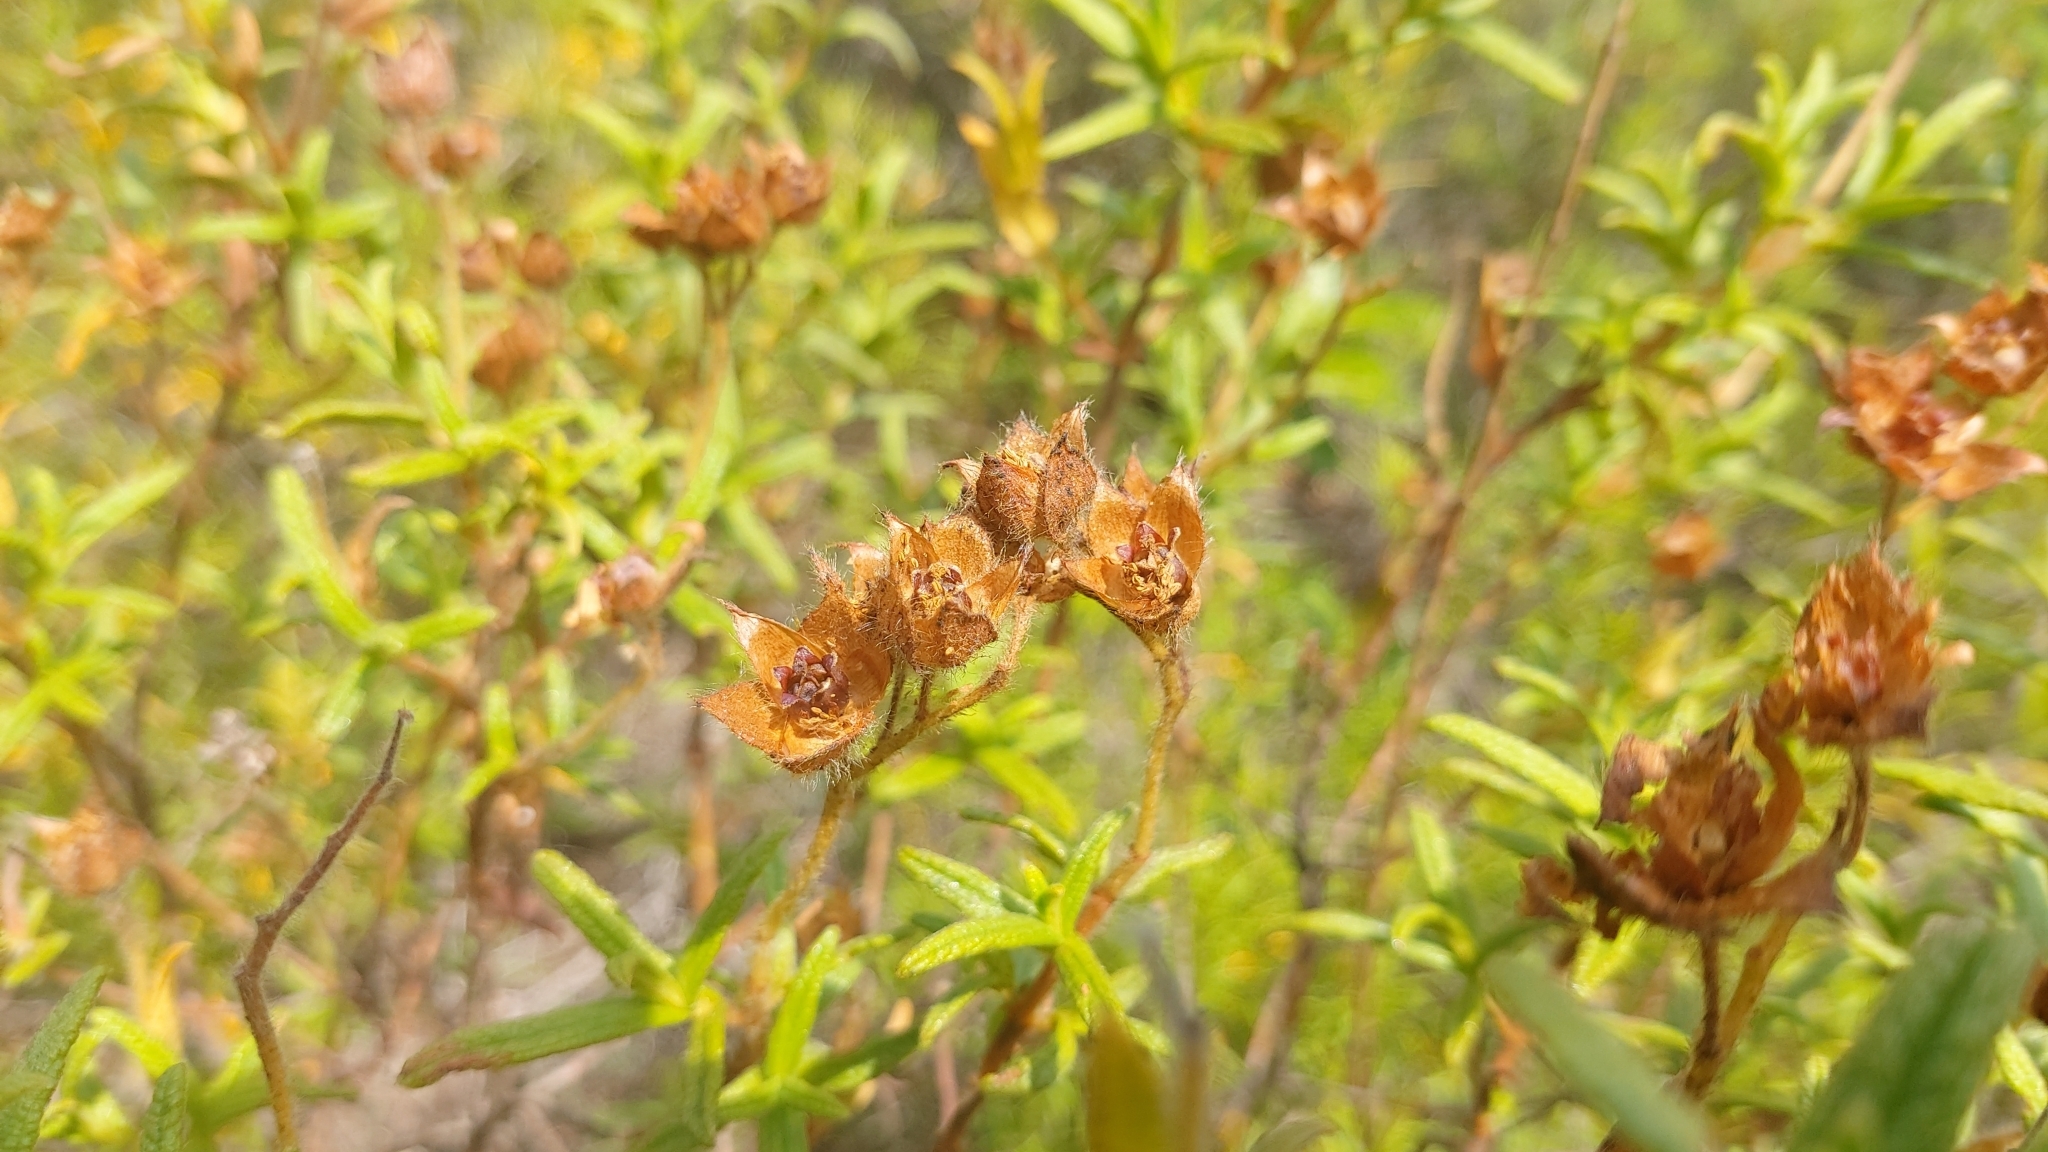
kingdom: Plantae
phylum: Tracheophyta
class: Magnoliopsida
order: Malvales
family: Cistaceae
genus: Cistus
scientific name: Cistus monspeliensis
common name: Montpelier cistus
